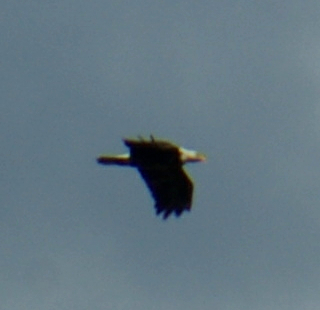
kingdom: Animalia
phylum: Chordata
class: Aves
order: Accipitriformes
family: Accipitridae
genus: Haliaeetus
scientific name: Haliaeetus leucocephalus
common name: Bald eagle
